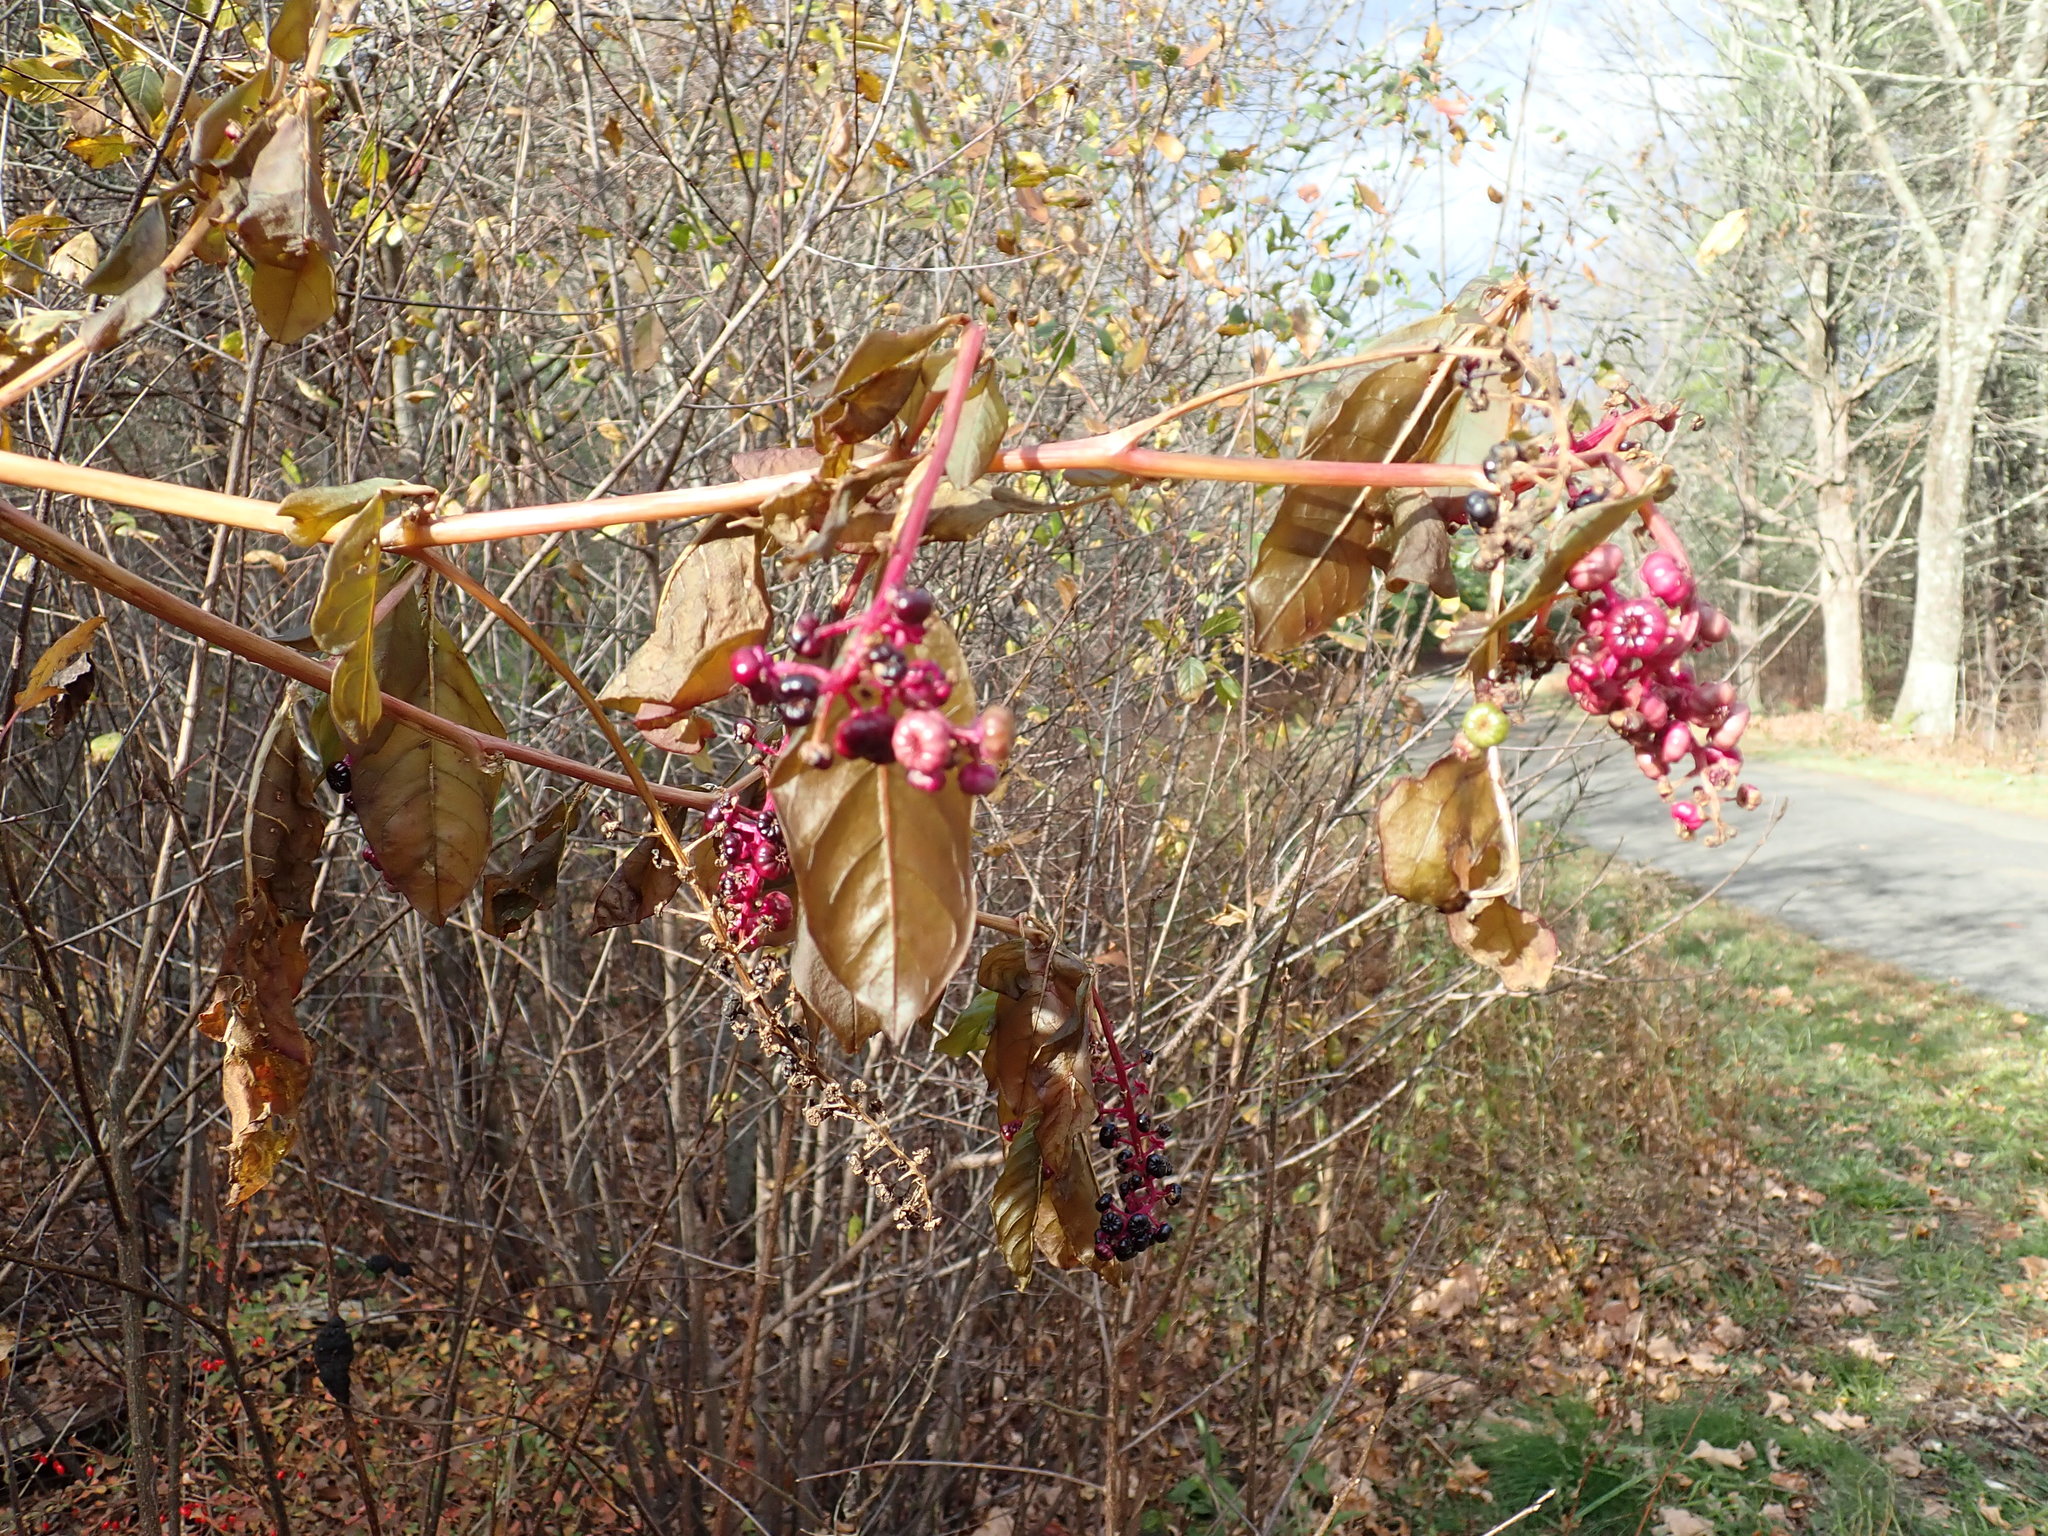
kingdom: Plantae
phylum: Tracheophyta
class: Magnoliopsida
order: Caryophyllales
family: Phytolaccaceae
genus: Phytolacca
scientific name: Phytolacca americana
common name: American pokeweed
